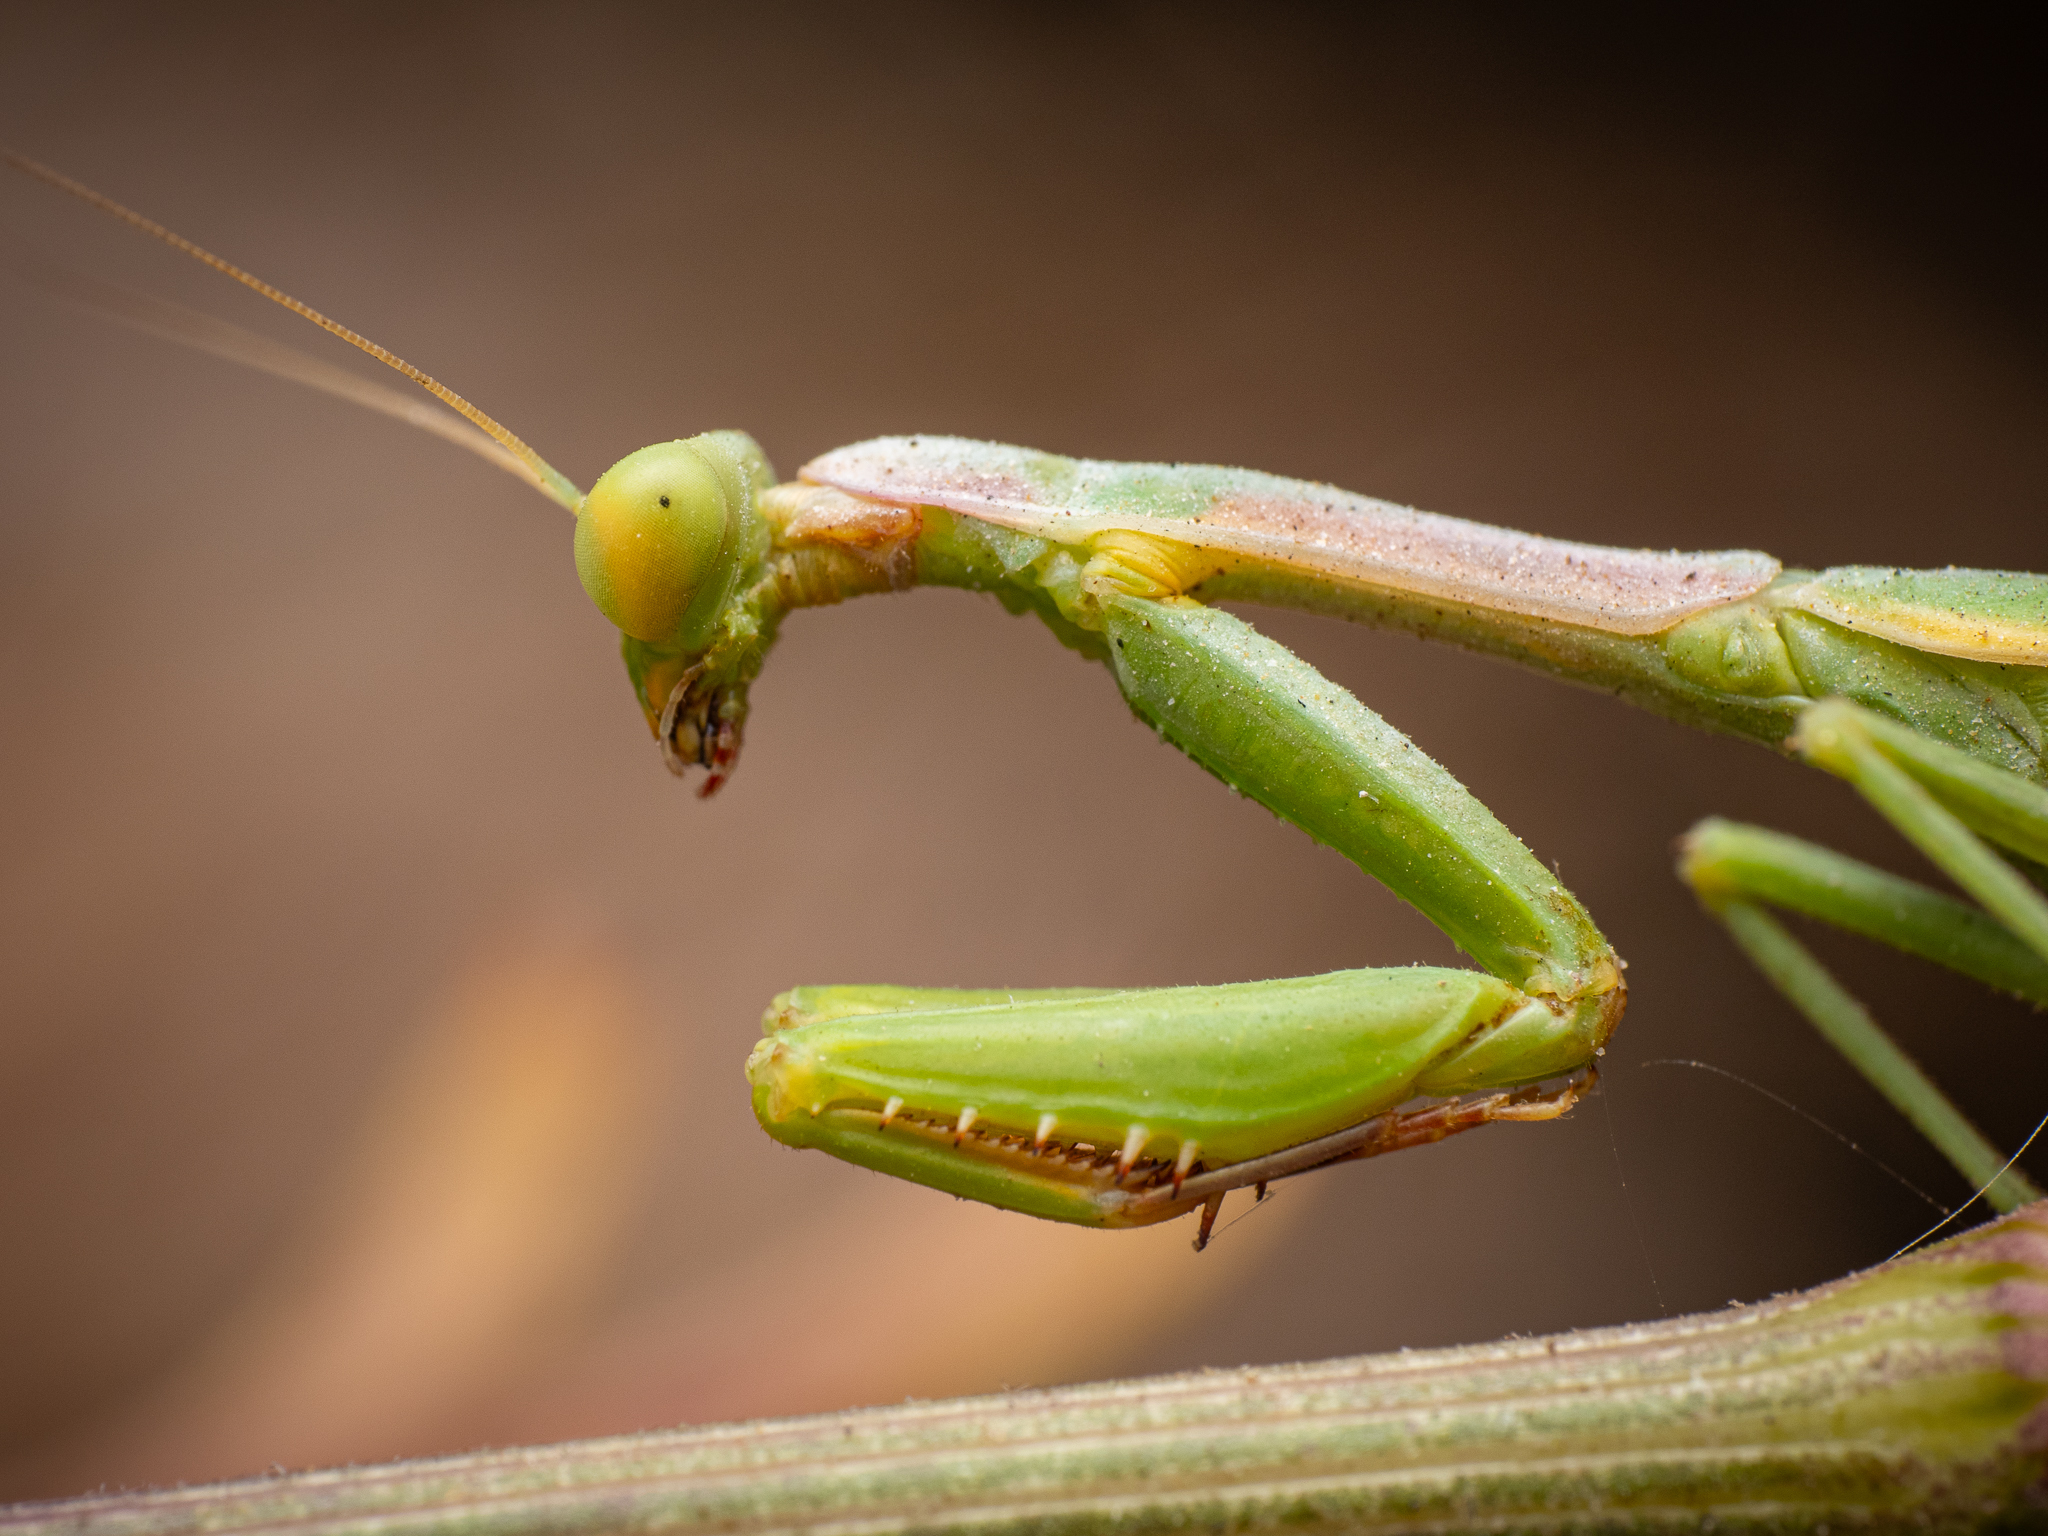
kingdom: Animalia
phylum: Arthropoda
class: Insecta
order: Mantodea
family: Eremiaphilidae
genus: Iris
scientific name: Iris oratoria
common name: Mediterranean mantis
